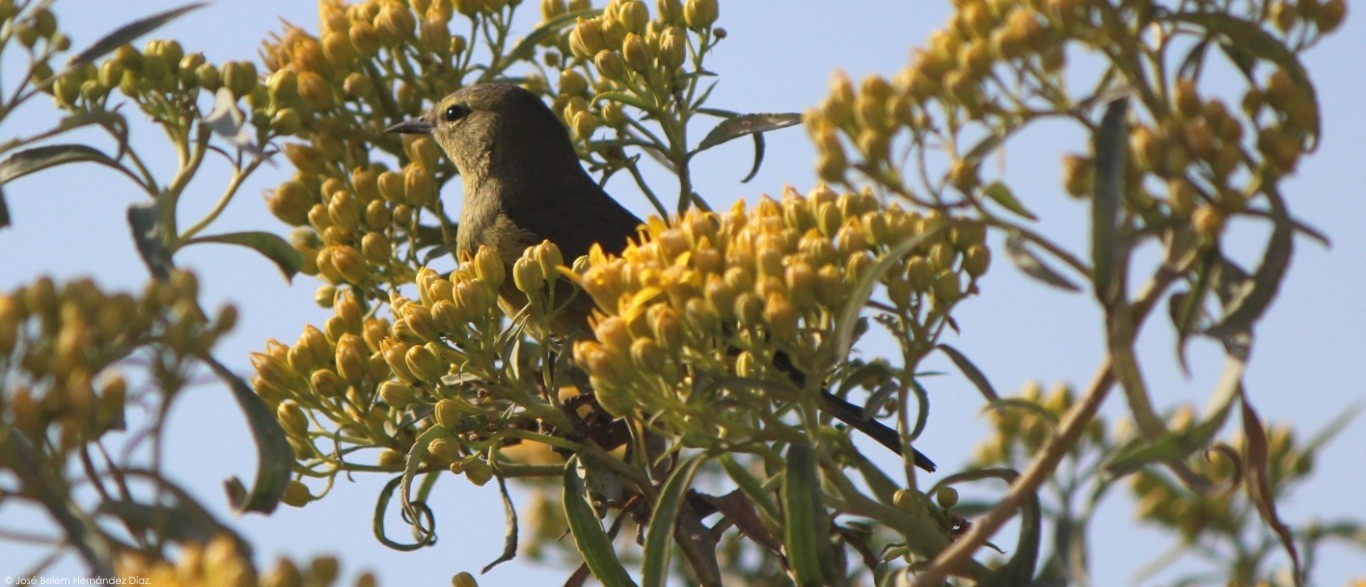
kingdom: Animalia
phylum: Chordata
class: Aves
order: Passeriformes
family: Parulidae
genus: Leiothlypis
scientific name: Leiothlypis celata
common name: Orange-crowned warbler
